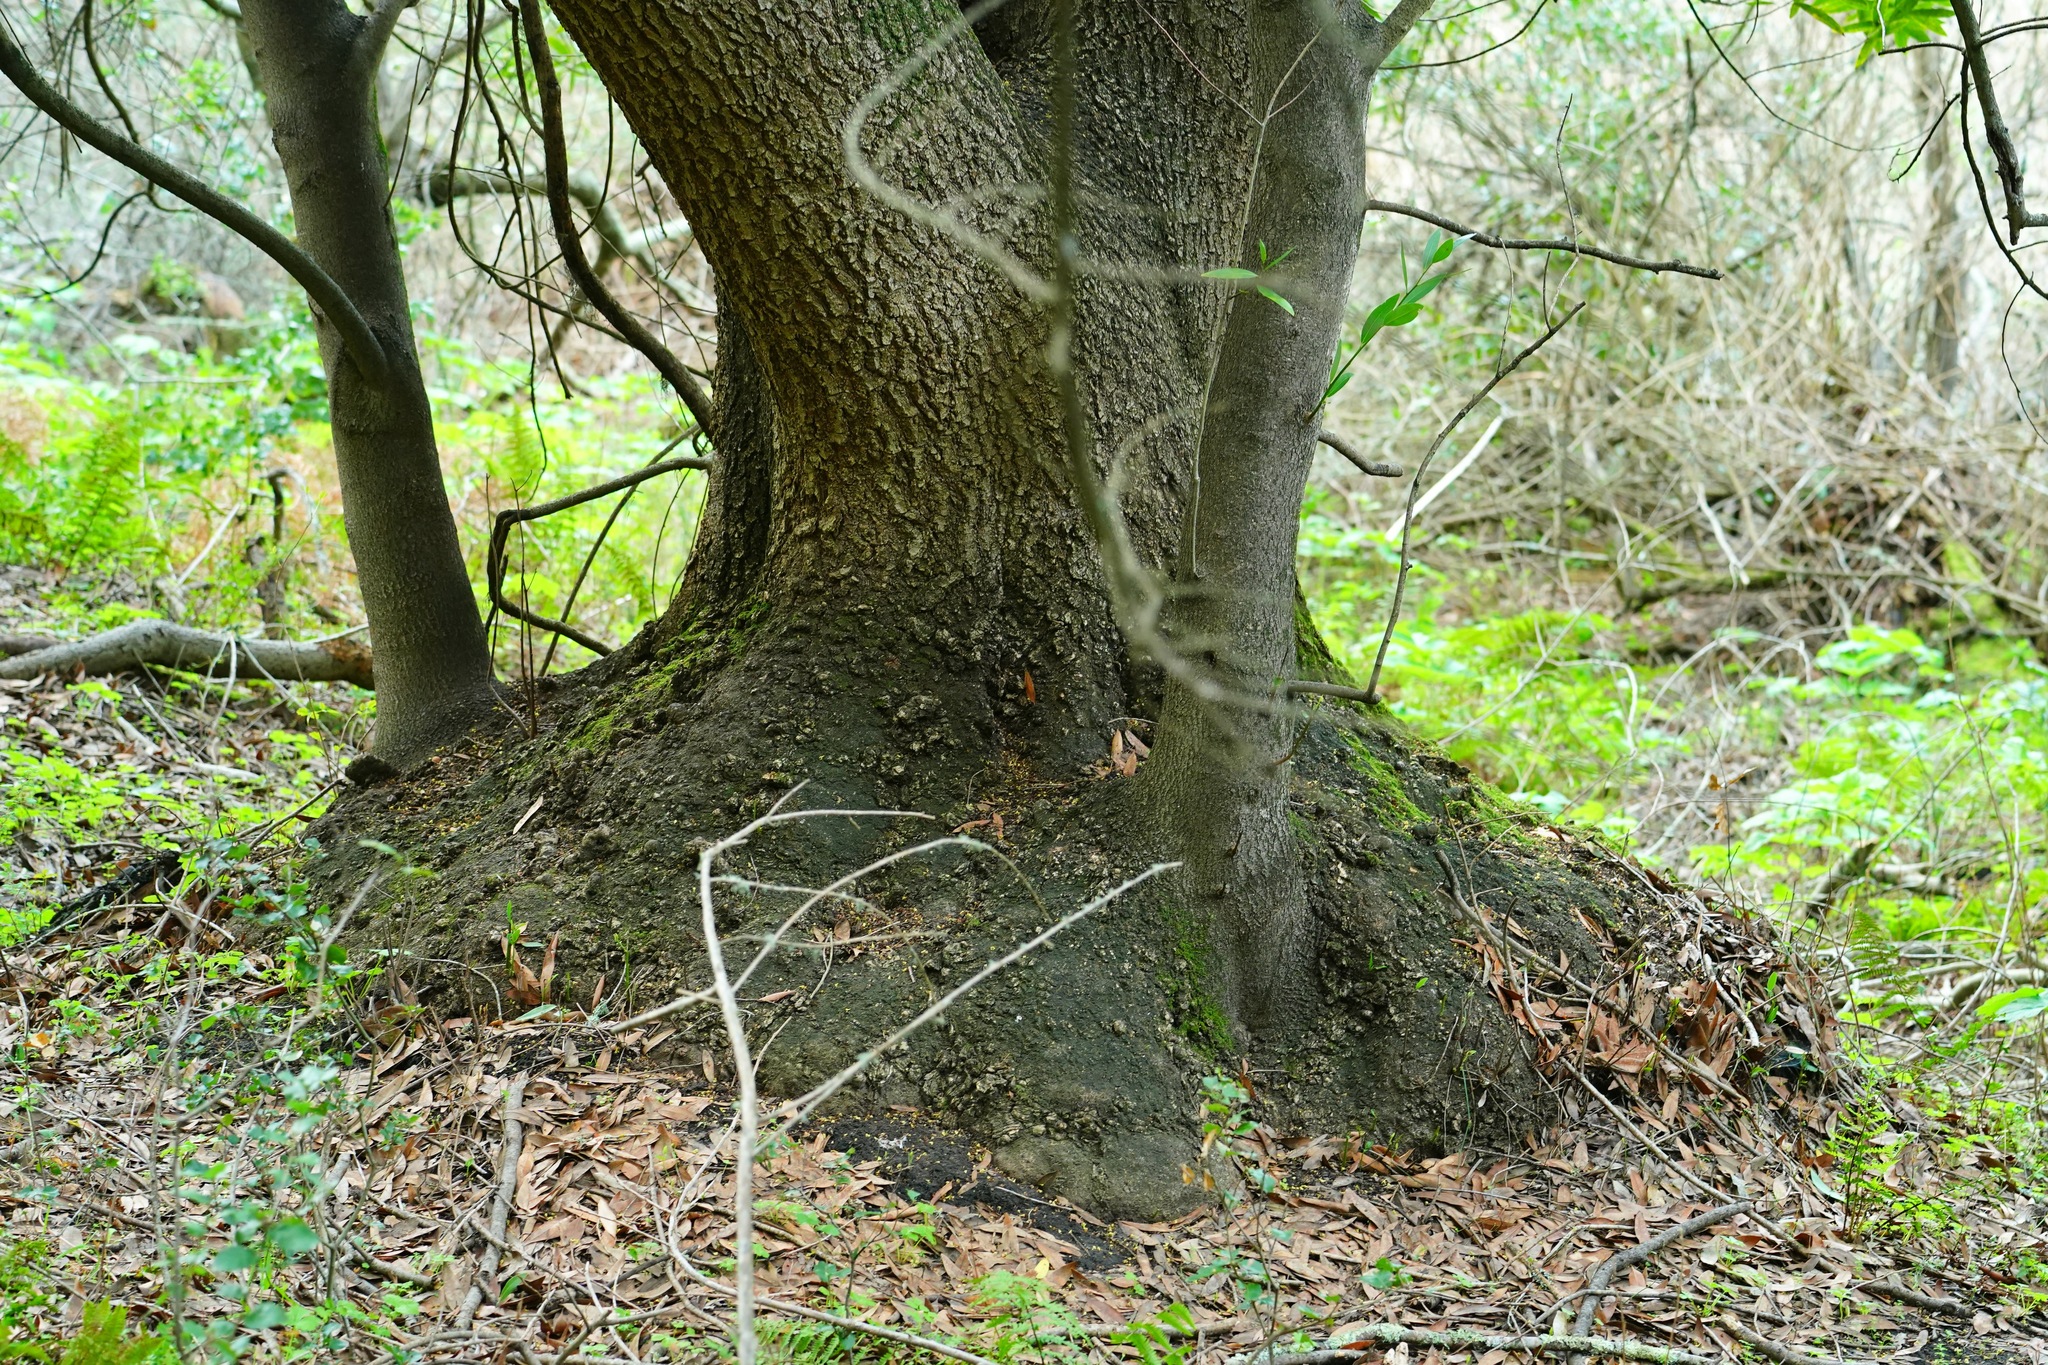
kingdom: Plantae
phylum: Tracheophyta
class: Magnoliopsida
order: Laurales
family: Lauraceae
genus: Umbellularia
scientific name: Umbellularia californica
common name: California bay
